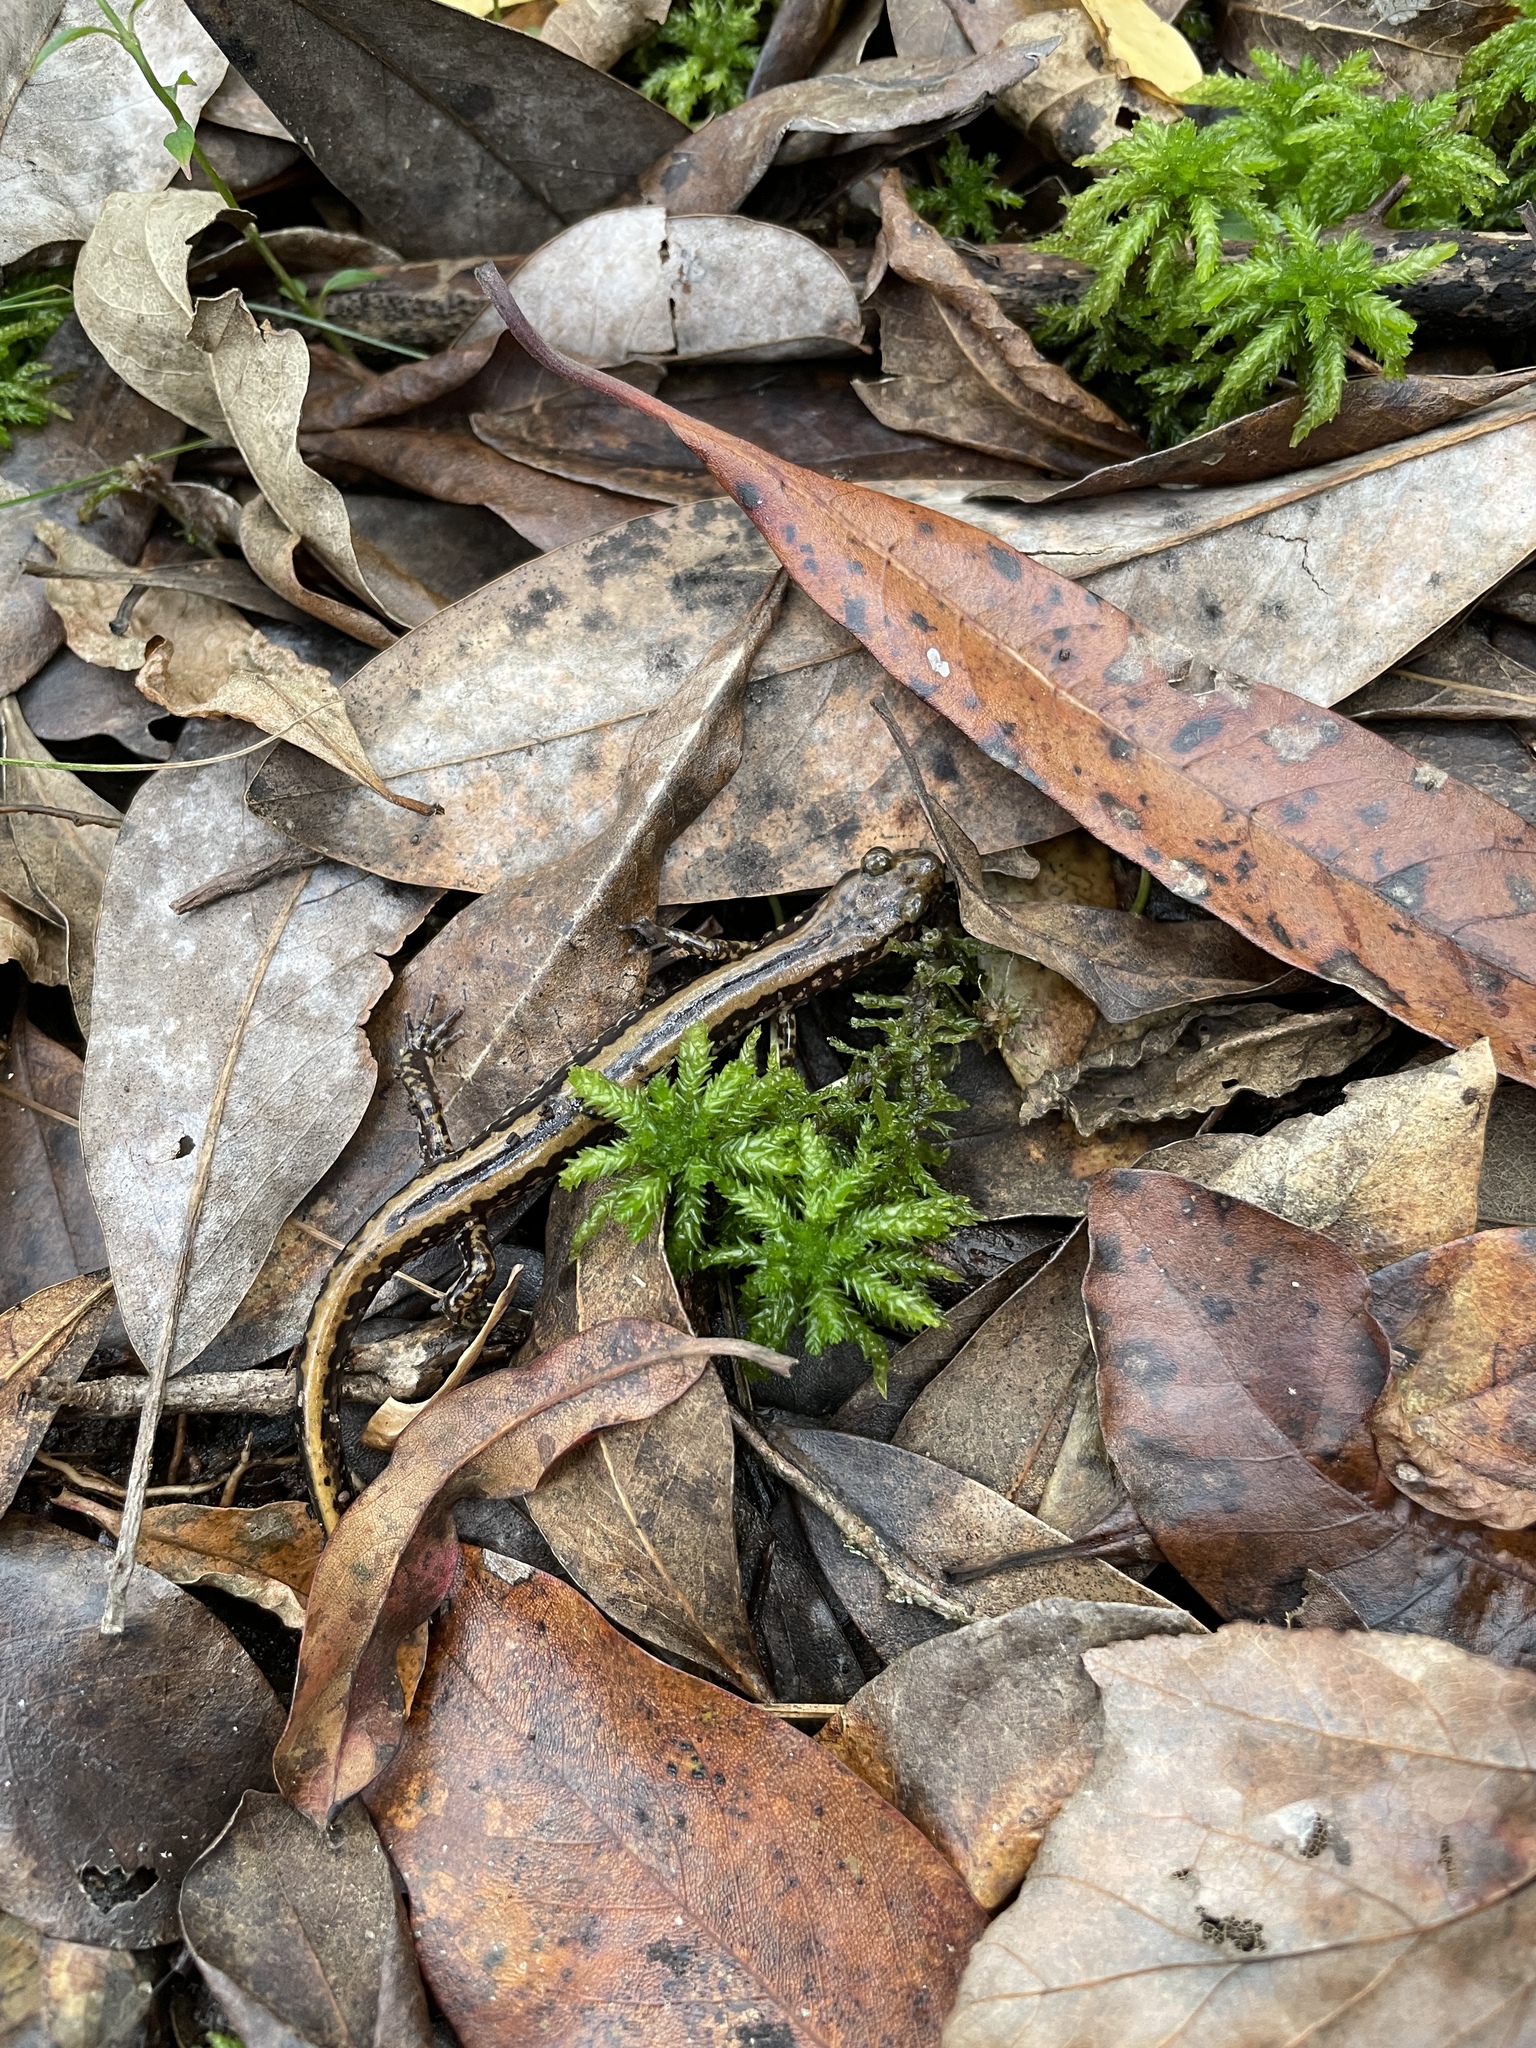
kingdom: Animalia
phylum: Chordata
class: Amphibia
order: Caudata
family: Plethodontidae
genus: Eurycea
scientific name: Eurycea guttolineata
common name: Three-lined salamander
